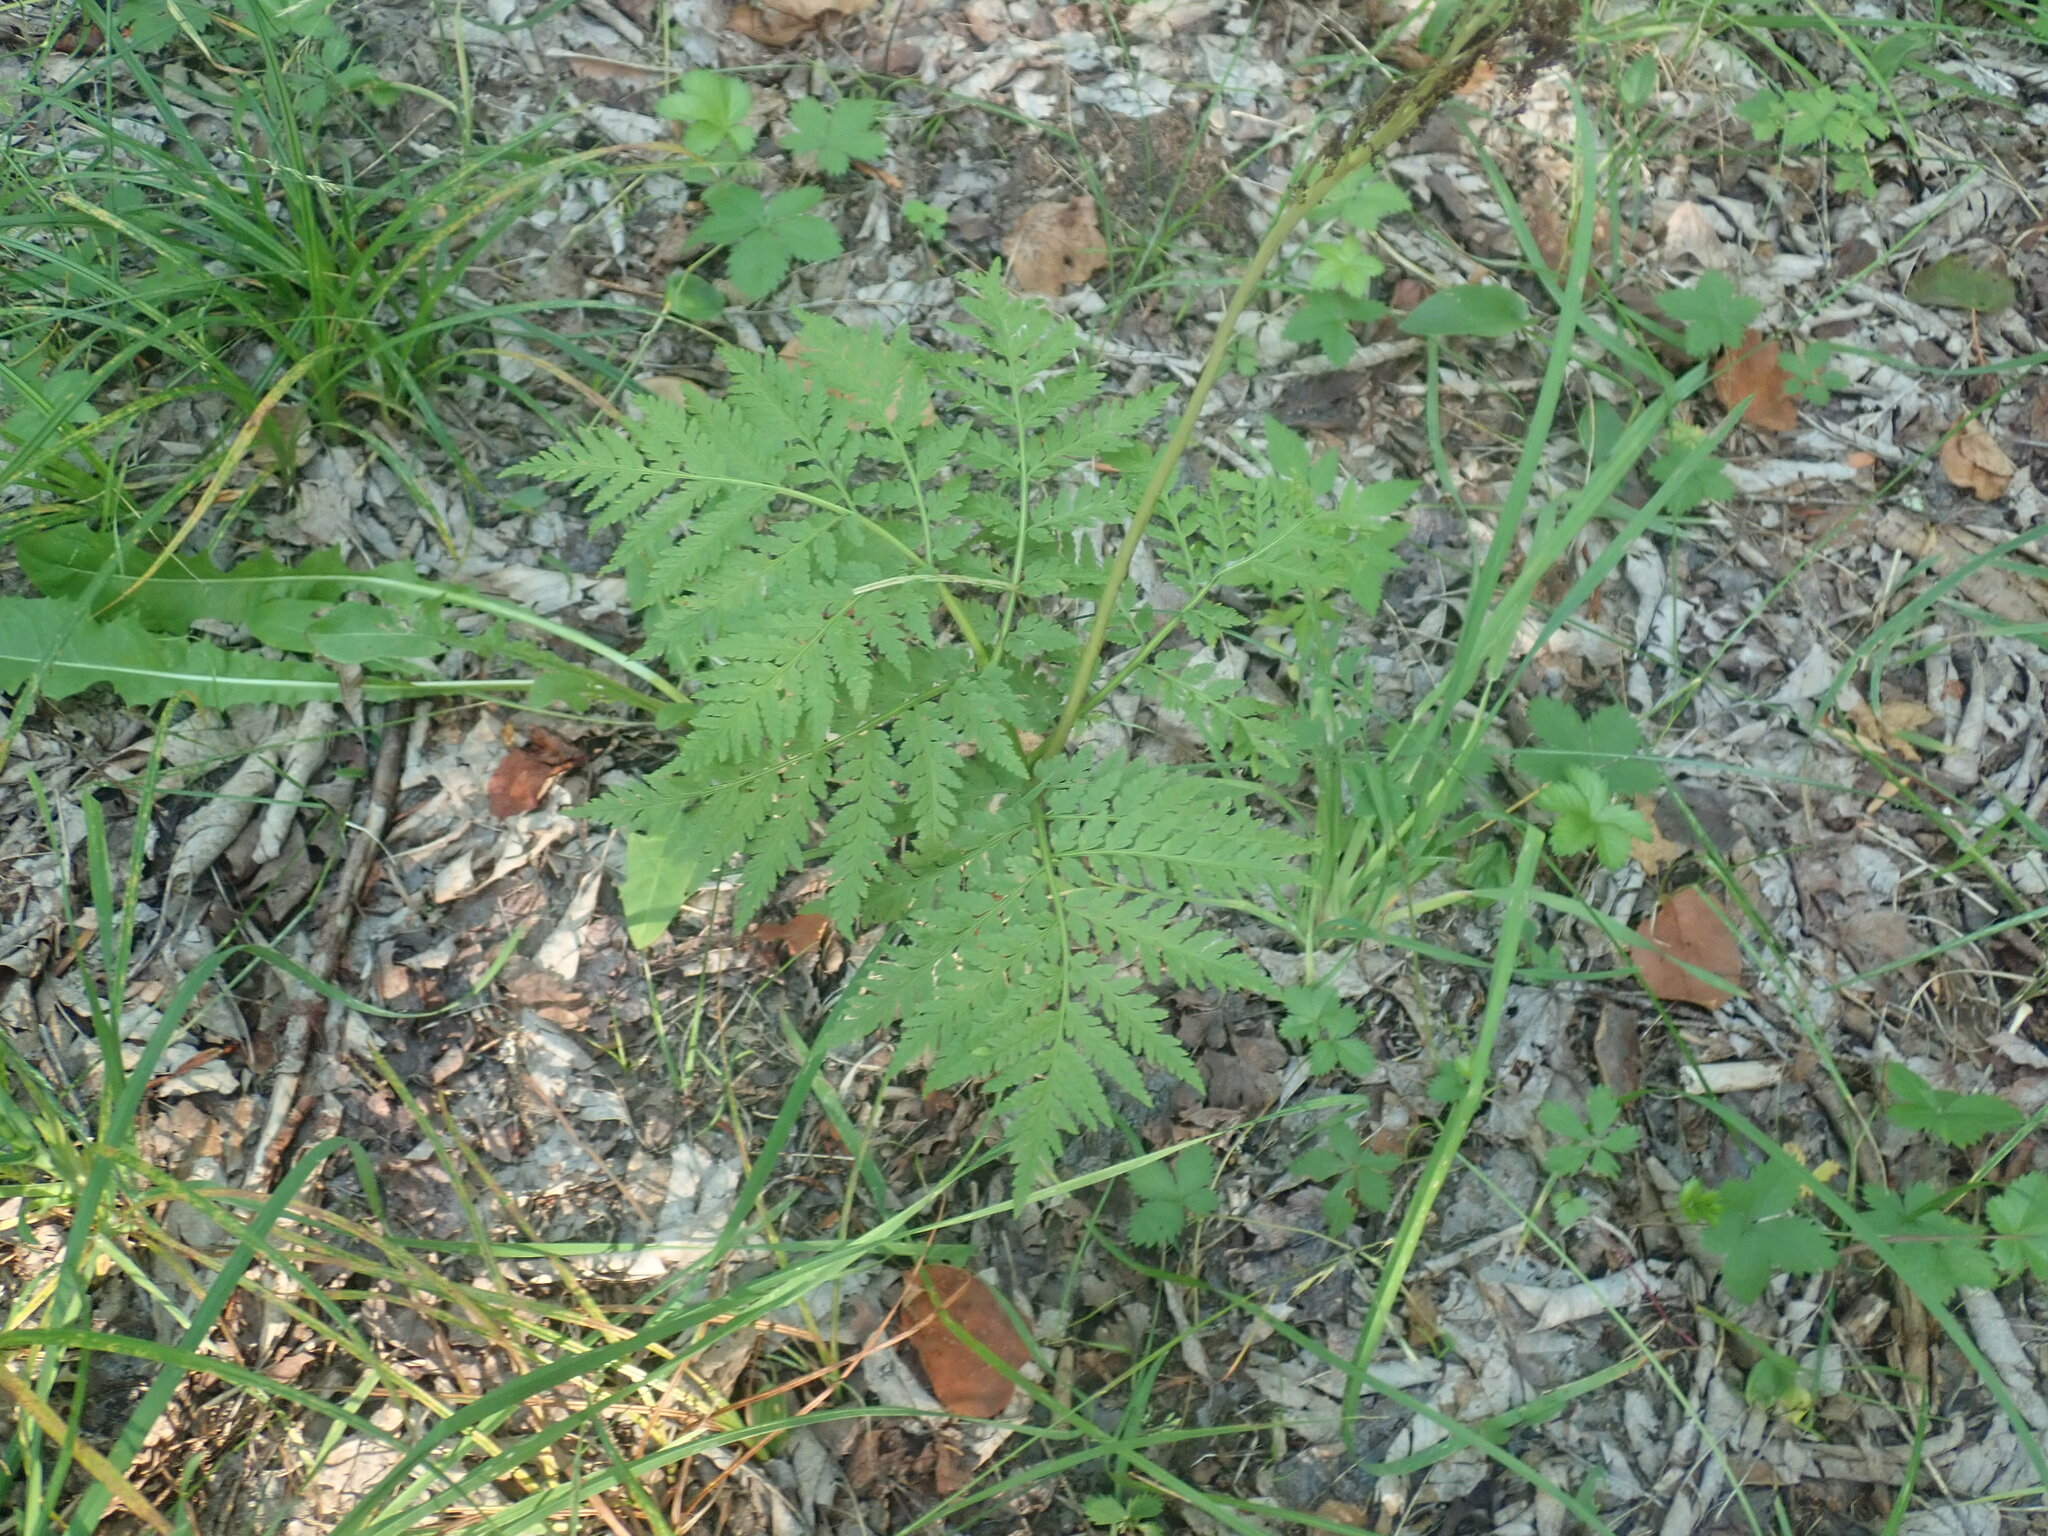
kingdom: Plantae
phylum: Tracheophyta
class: Polypodiopsida
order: Ophioglossales
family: Ophioglossaceae
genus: Botrypus
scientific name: Botrypus virginianus
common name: Common grapefern
